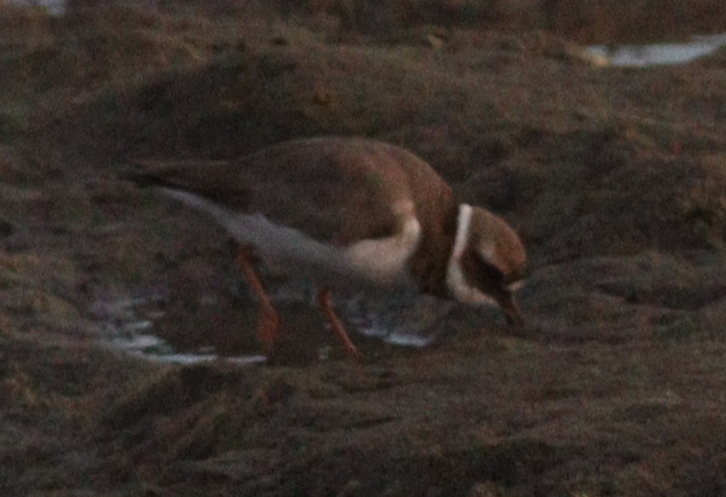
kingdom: Animalia
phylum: Chordata
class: Aves
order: Charadriiformes
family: Charadriidae
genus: Charadrius
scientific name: Charadrius hiaticula
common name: Common ringed plover
